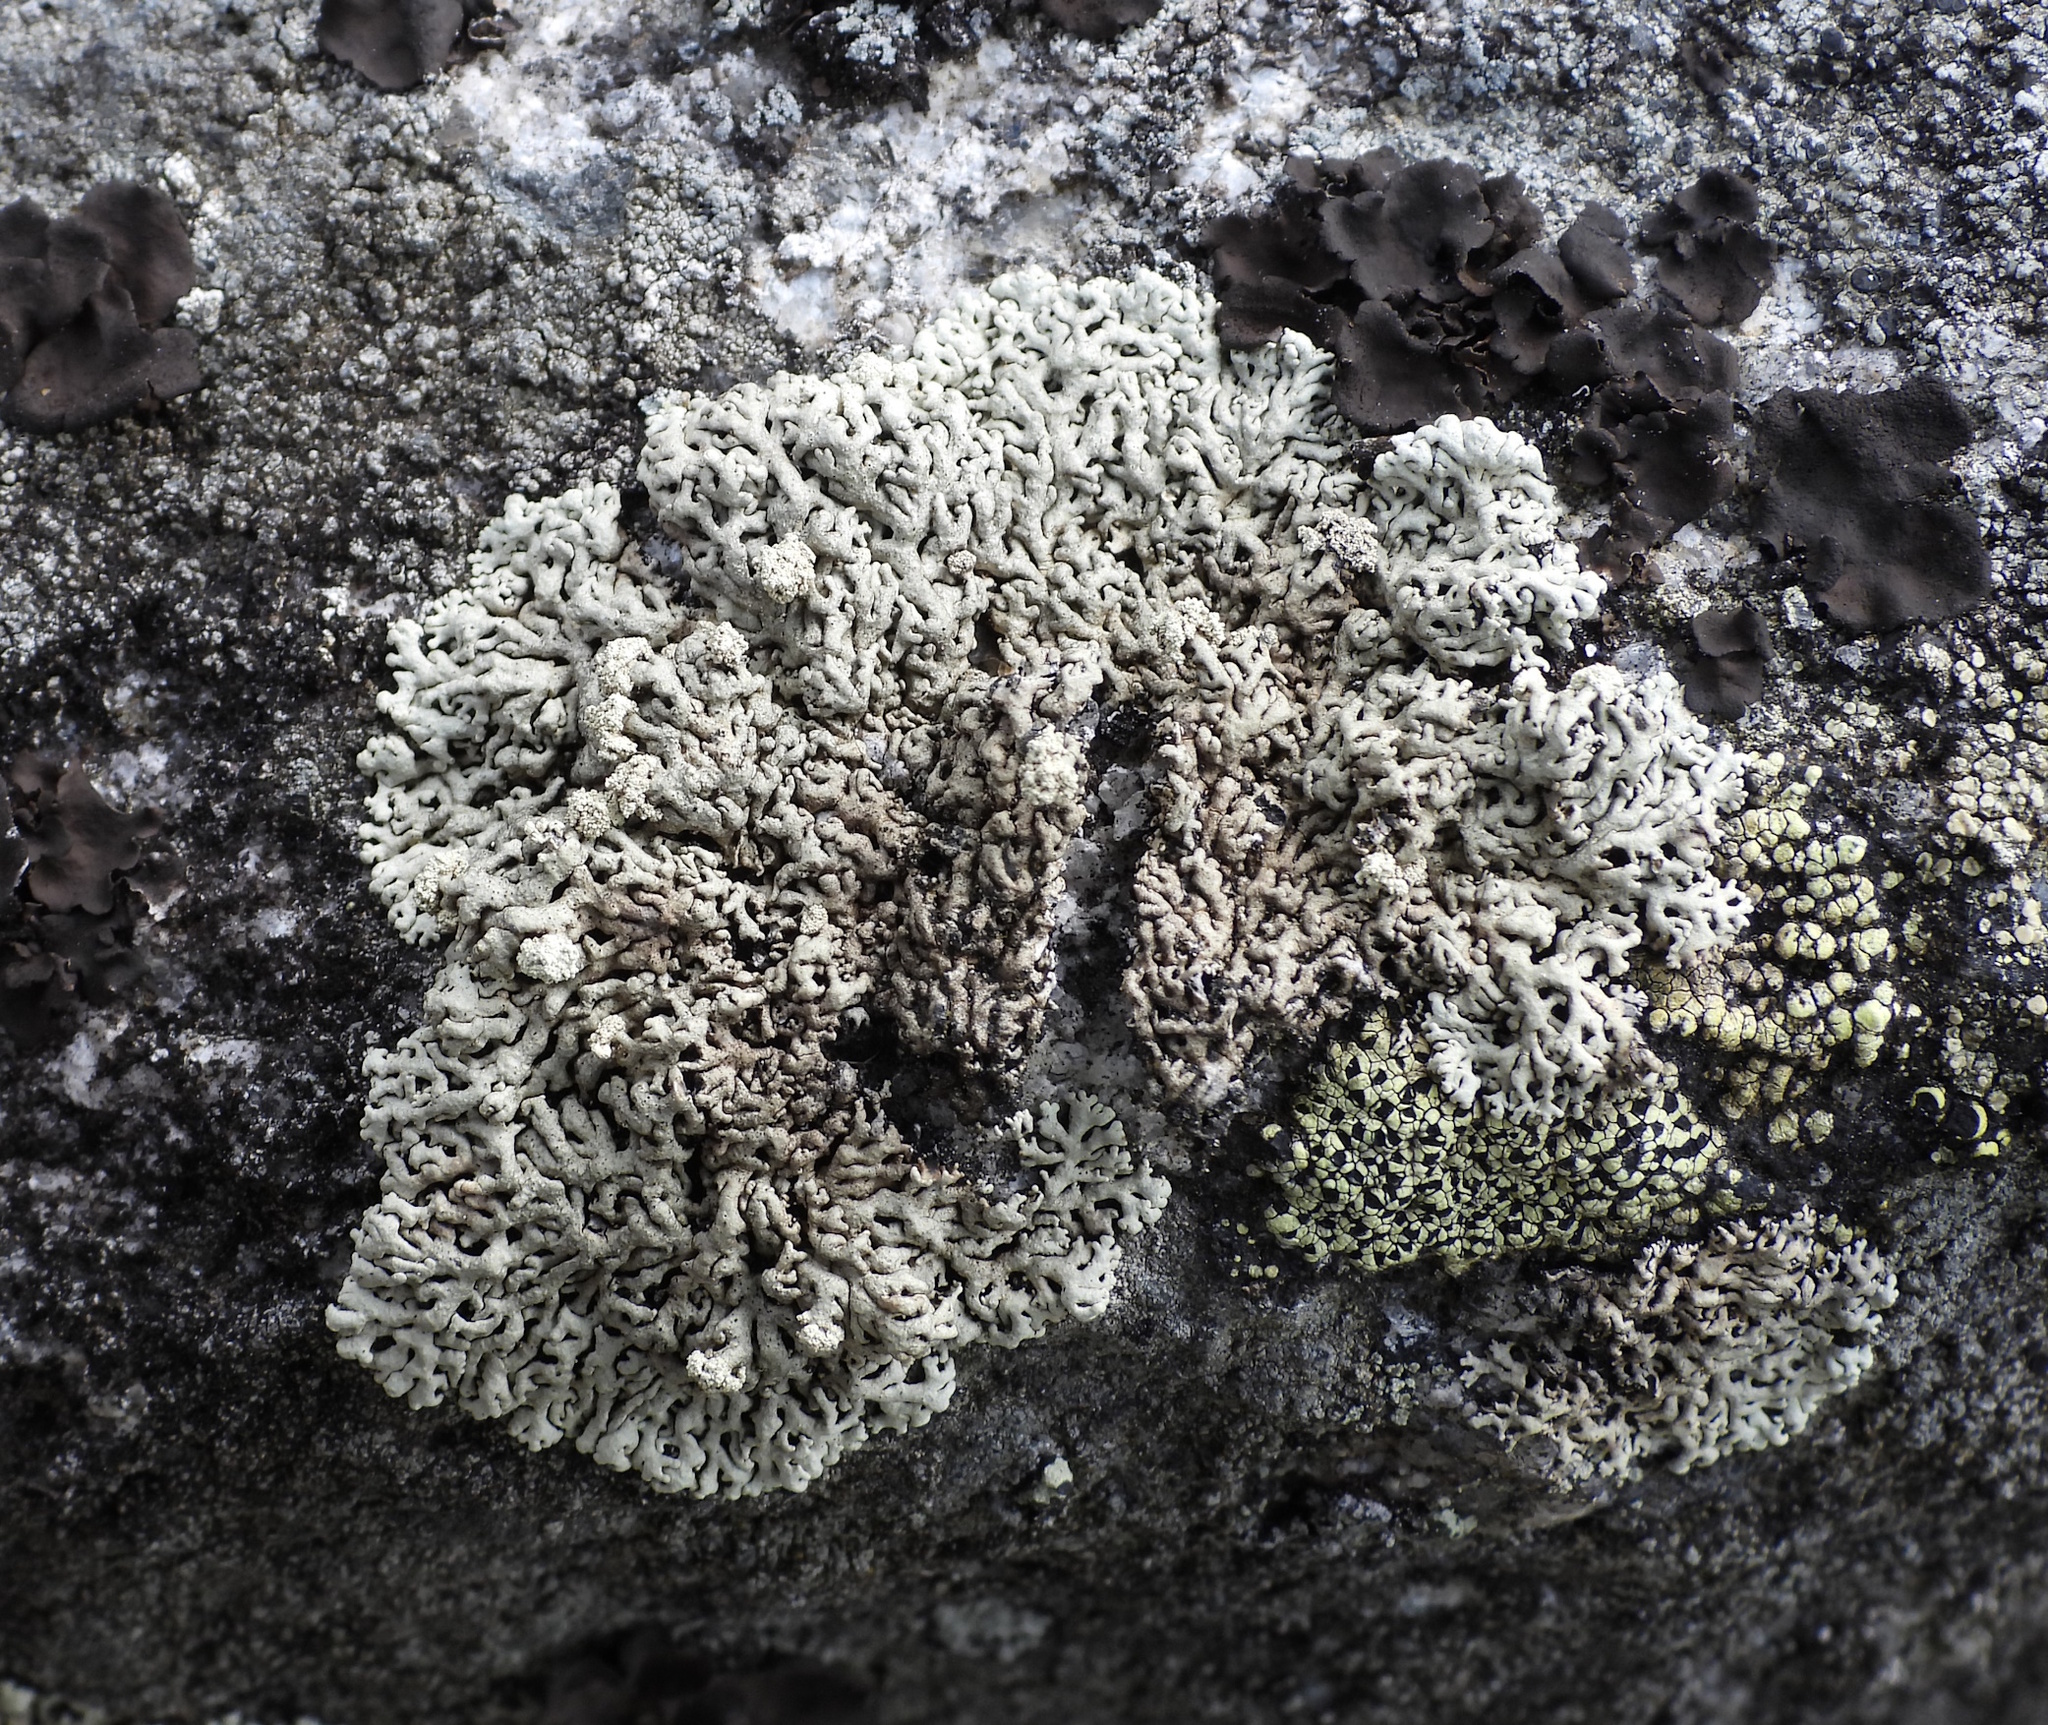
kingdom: Fungi
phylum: Ascomycota
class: Lecanoromycetes
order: Lecanorales
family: Parmeliaceae
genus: Arctoparmelia
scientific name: Arctoparmelia incurva
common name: Bent ring lichen
